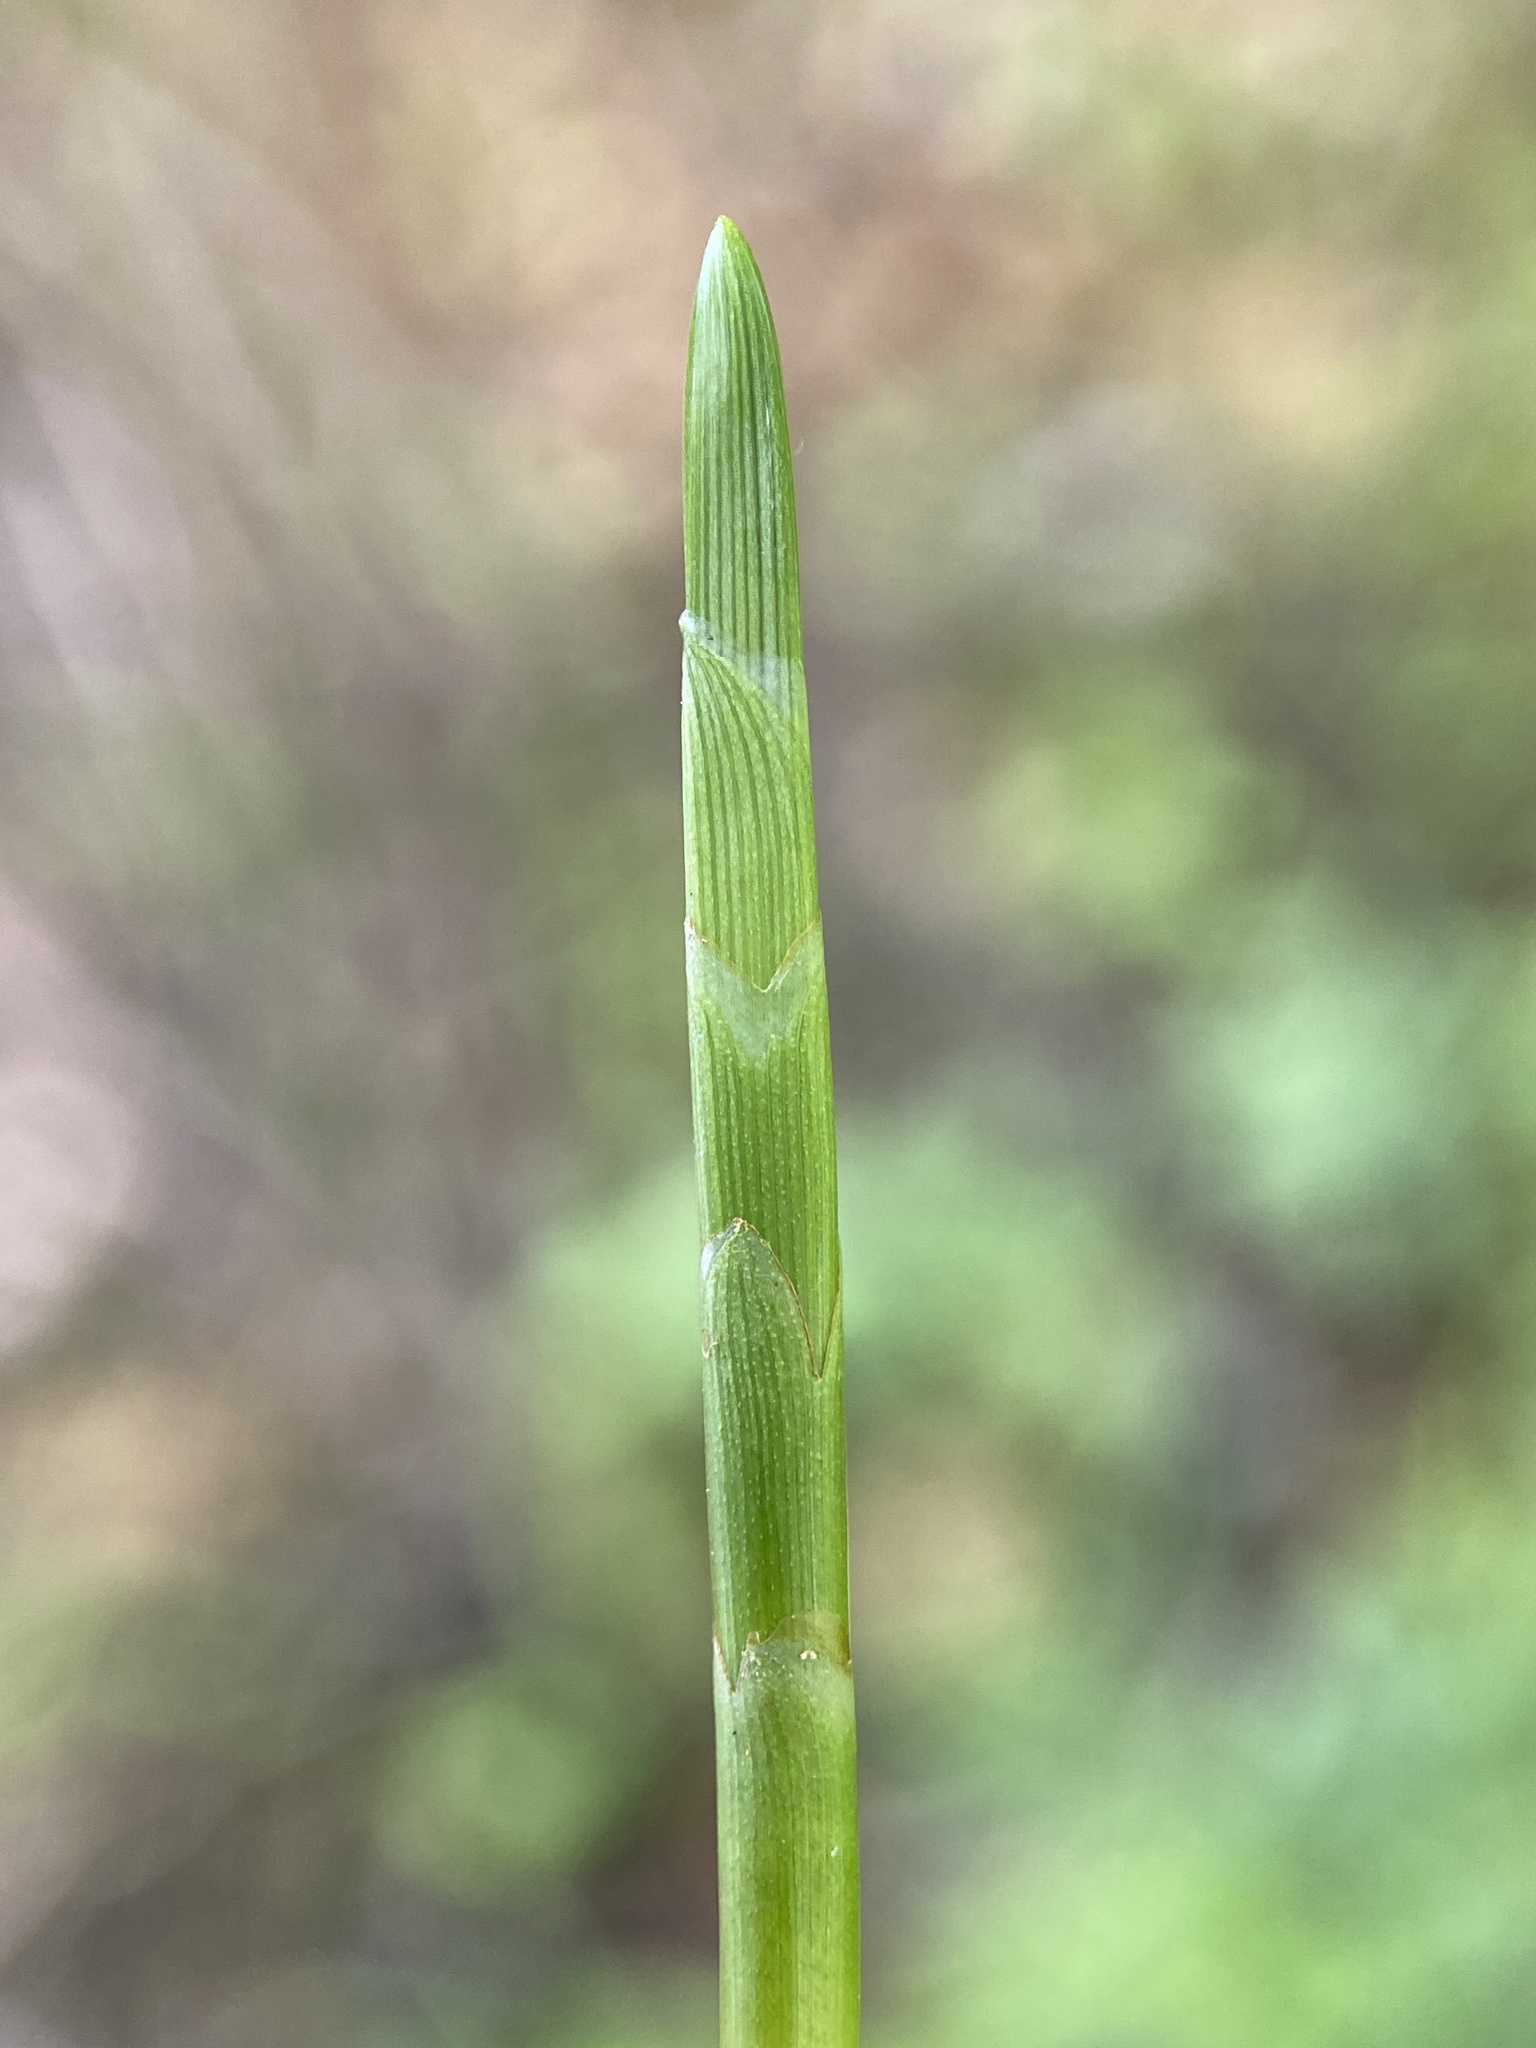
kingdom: Plantae
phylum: Tracheophyta
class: Liliopsida
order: Poales
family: Cyperaceae
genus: Dulichium
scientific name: Dulichium arundinaceum
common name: Three-way sedge
